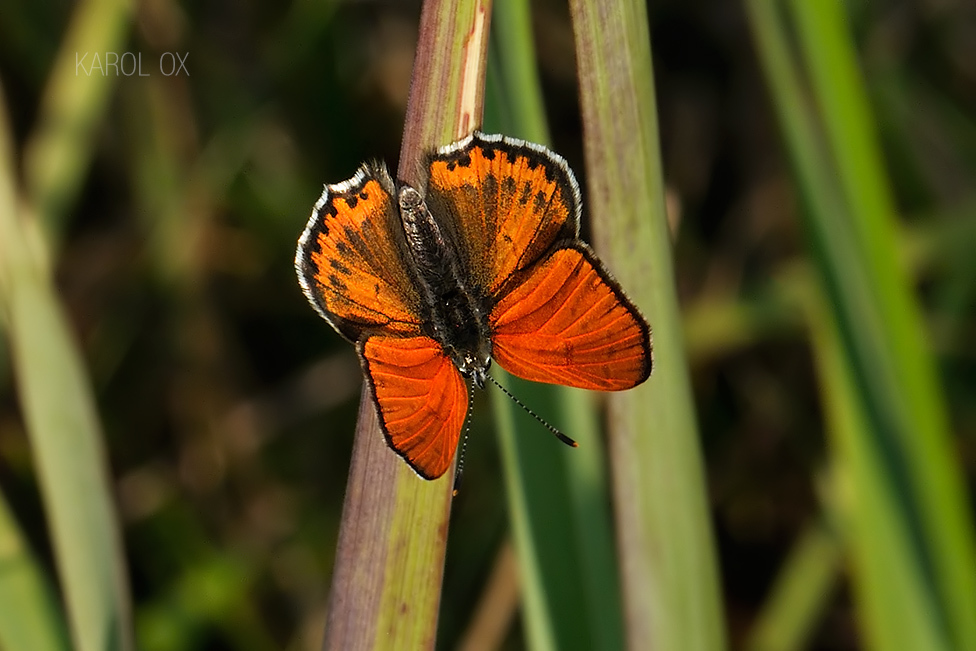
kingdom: Animalia
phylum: Arthropoda
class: Insecta
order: Lepidoptera
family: Lycaenidae
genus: Thersamonia
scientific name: Thersamonia thersamon
